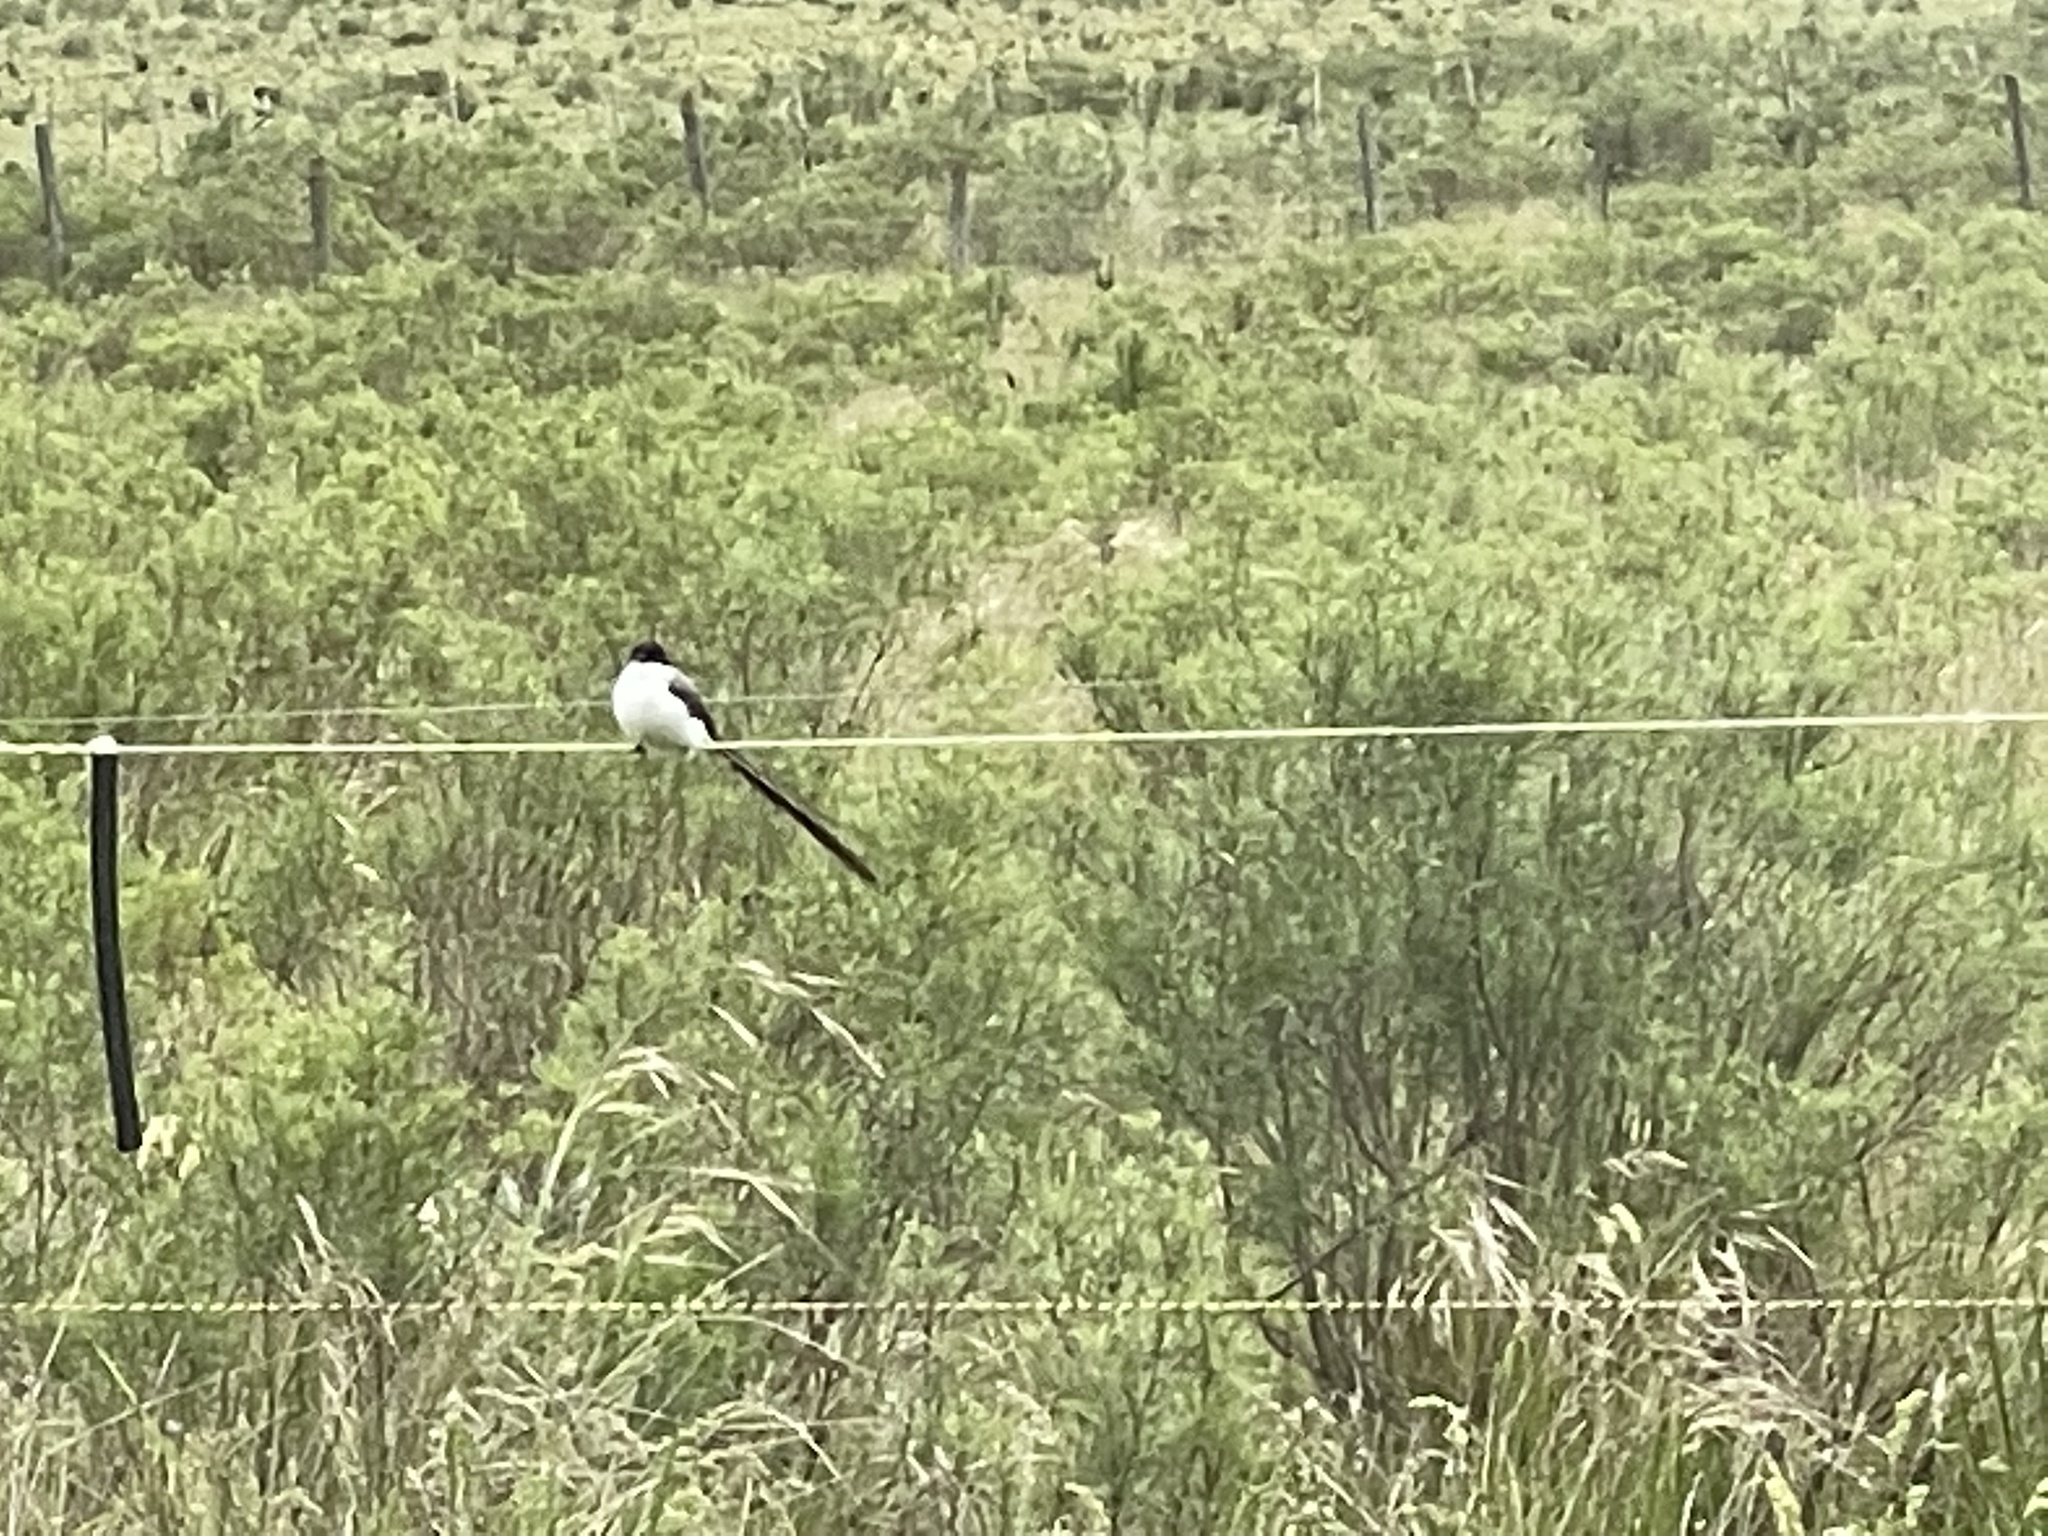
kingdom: Animalia
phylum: Chordata
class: Aves
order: Passeriformes
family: Tyrannidae
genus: Tyrannus
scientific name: Tyrannus savana
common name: Fork-tailed flycatcher
